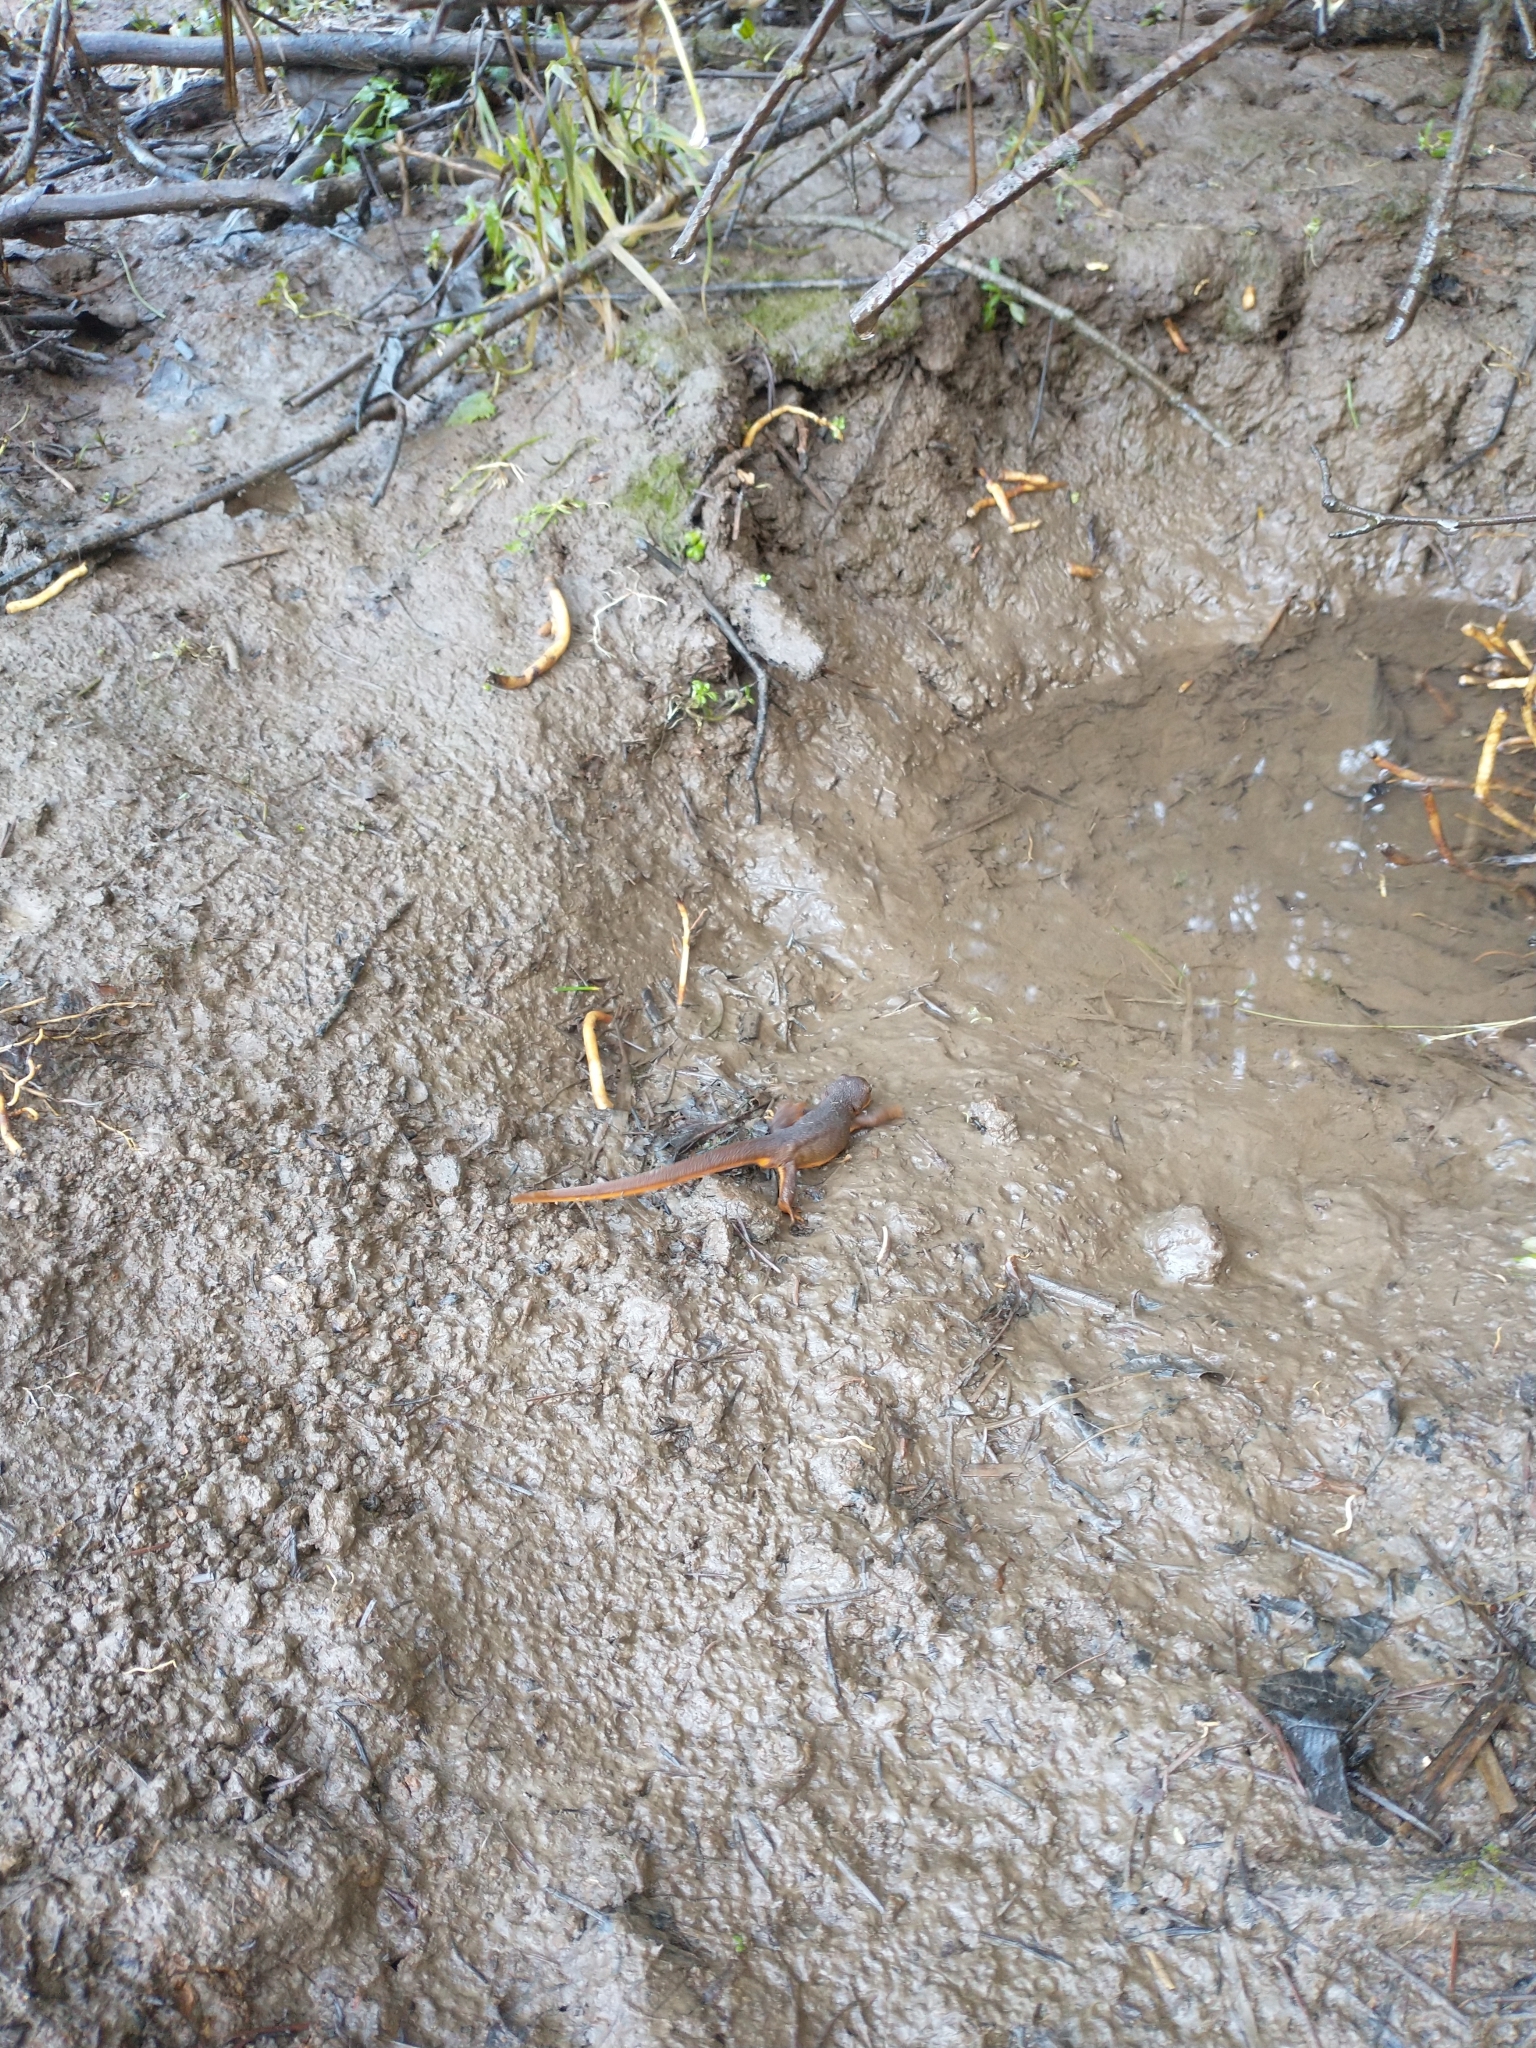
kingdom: Animalia
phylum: Chordata
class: Amphibia
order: Caudata
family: Salamandridae
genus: Taricha
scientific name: Taricha granulosa
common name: Roughskin newt
